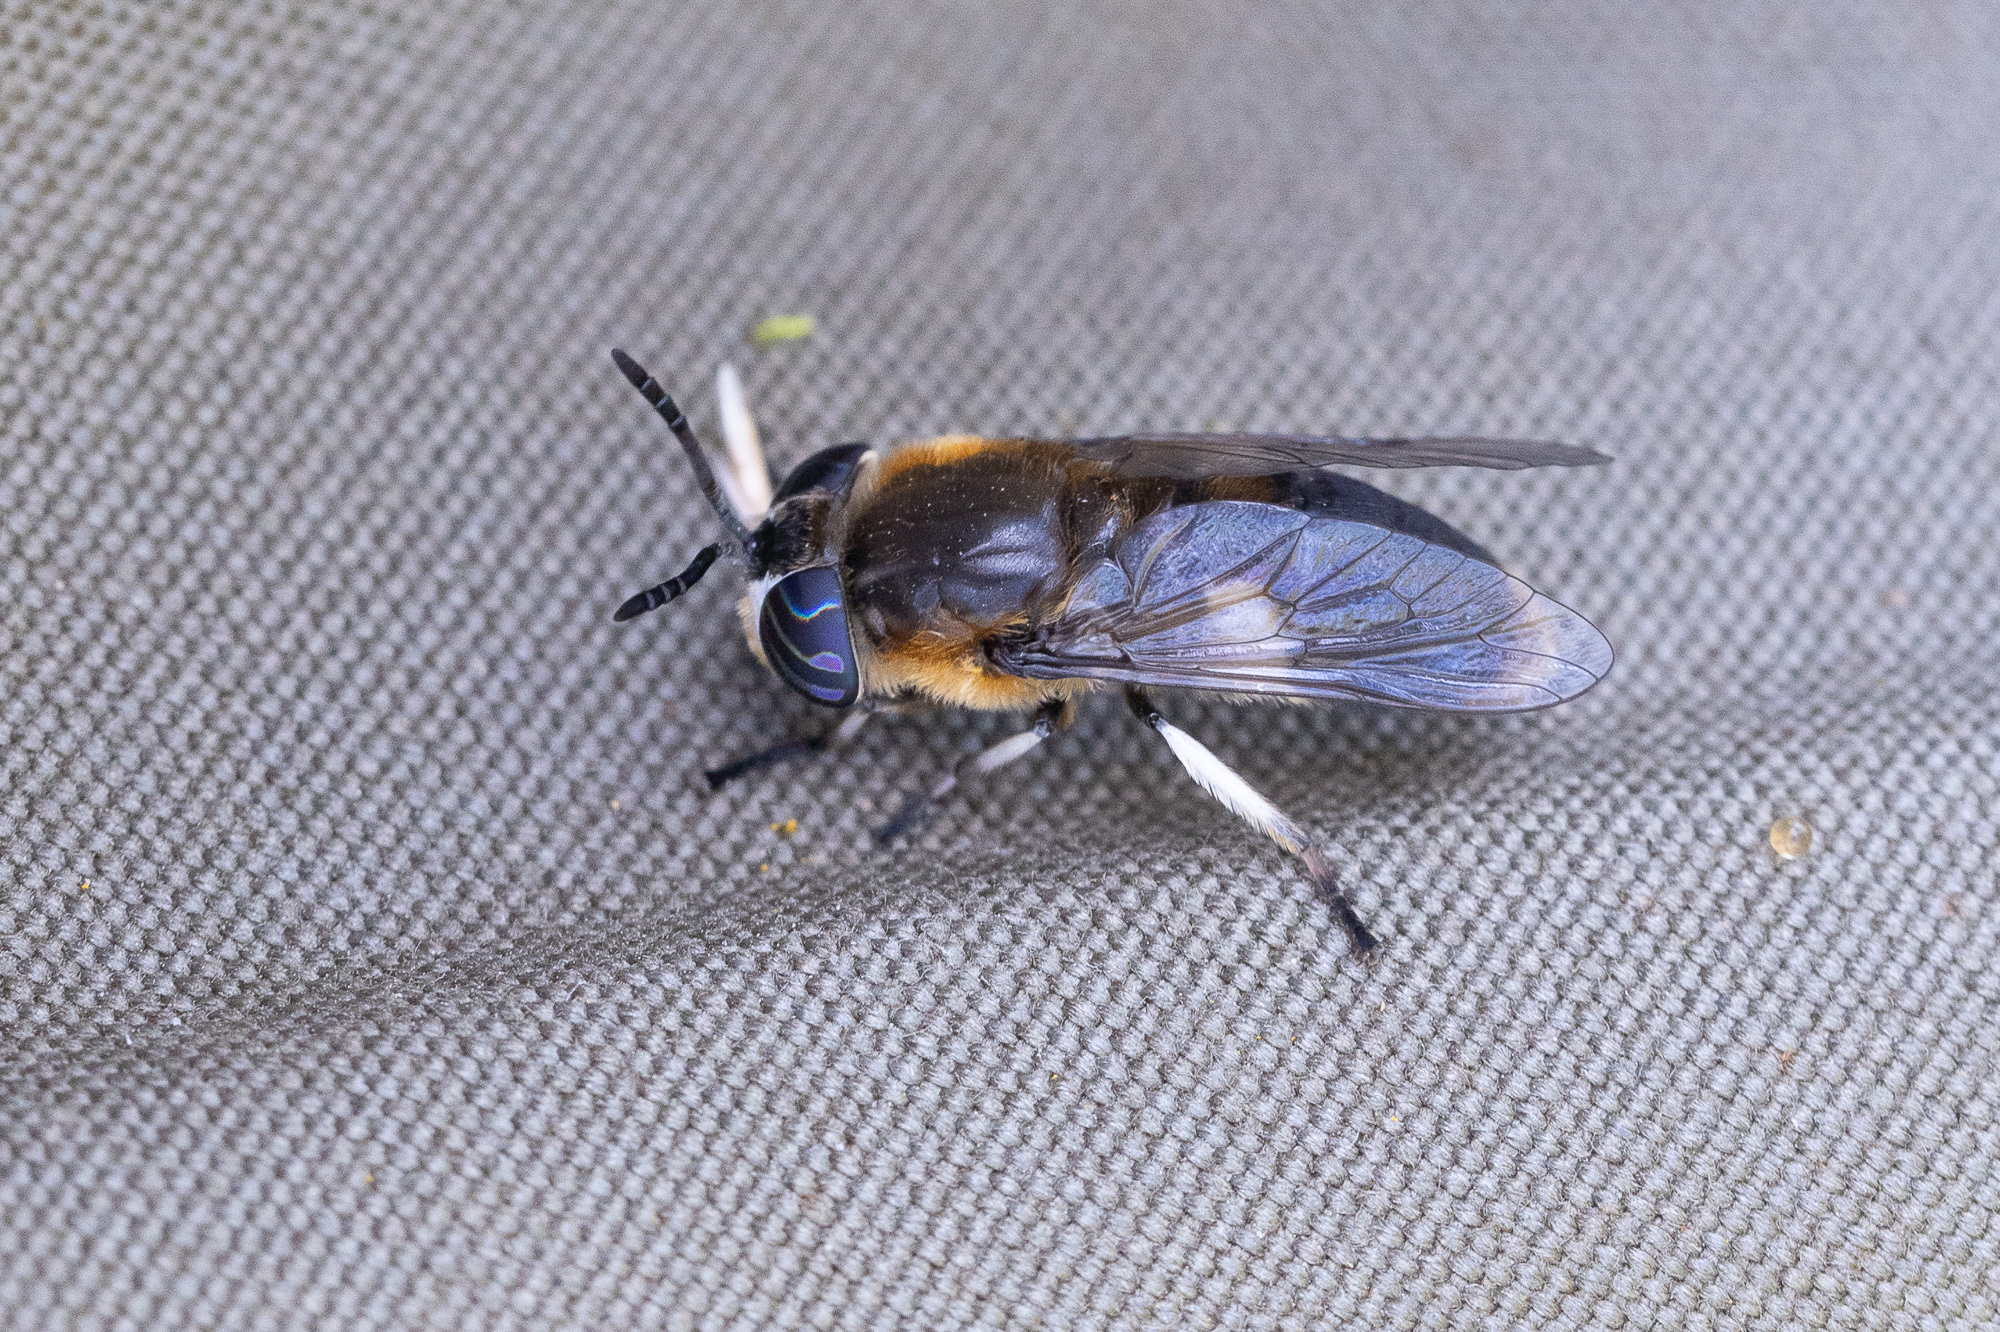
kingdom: Animalia
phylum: Arthropoda
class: Insecta
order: Diptera
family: Tabanidae
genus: Heptatoma
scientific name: Heptatoma pellucens
